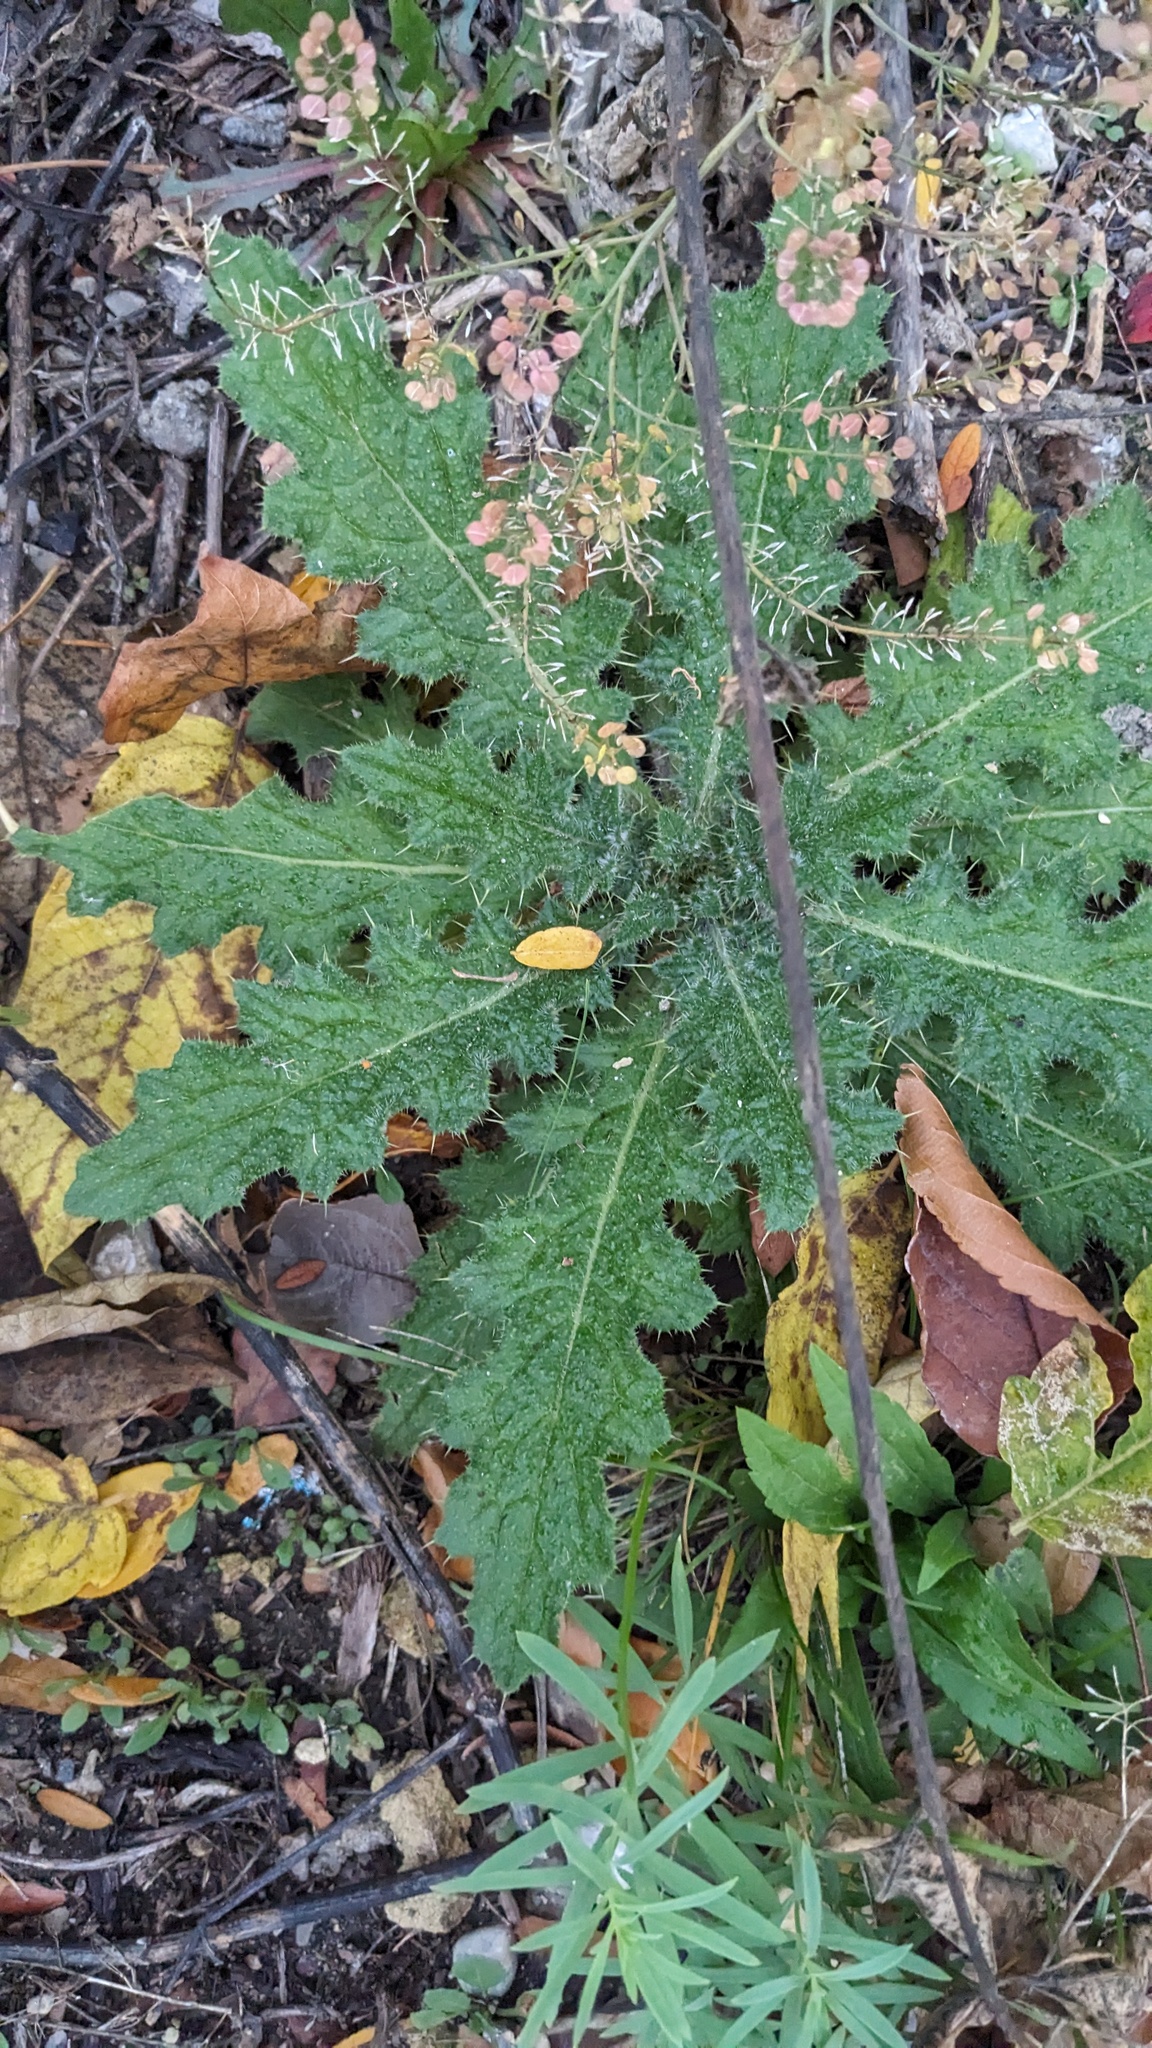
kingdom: Plantae
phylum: Tracheophyta
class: Magnoliopsida
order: Asterales
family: Asteraceae
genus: Cirsium
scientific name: Cirsium vulgare
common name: Bull thistle
